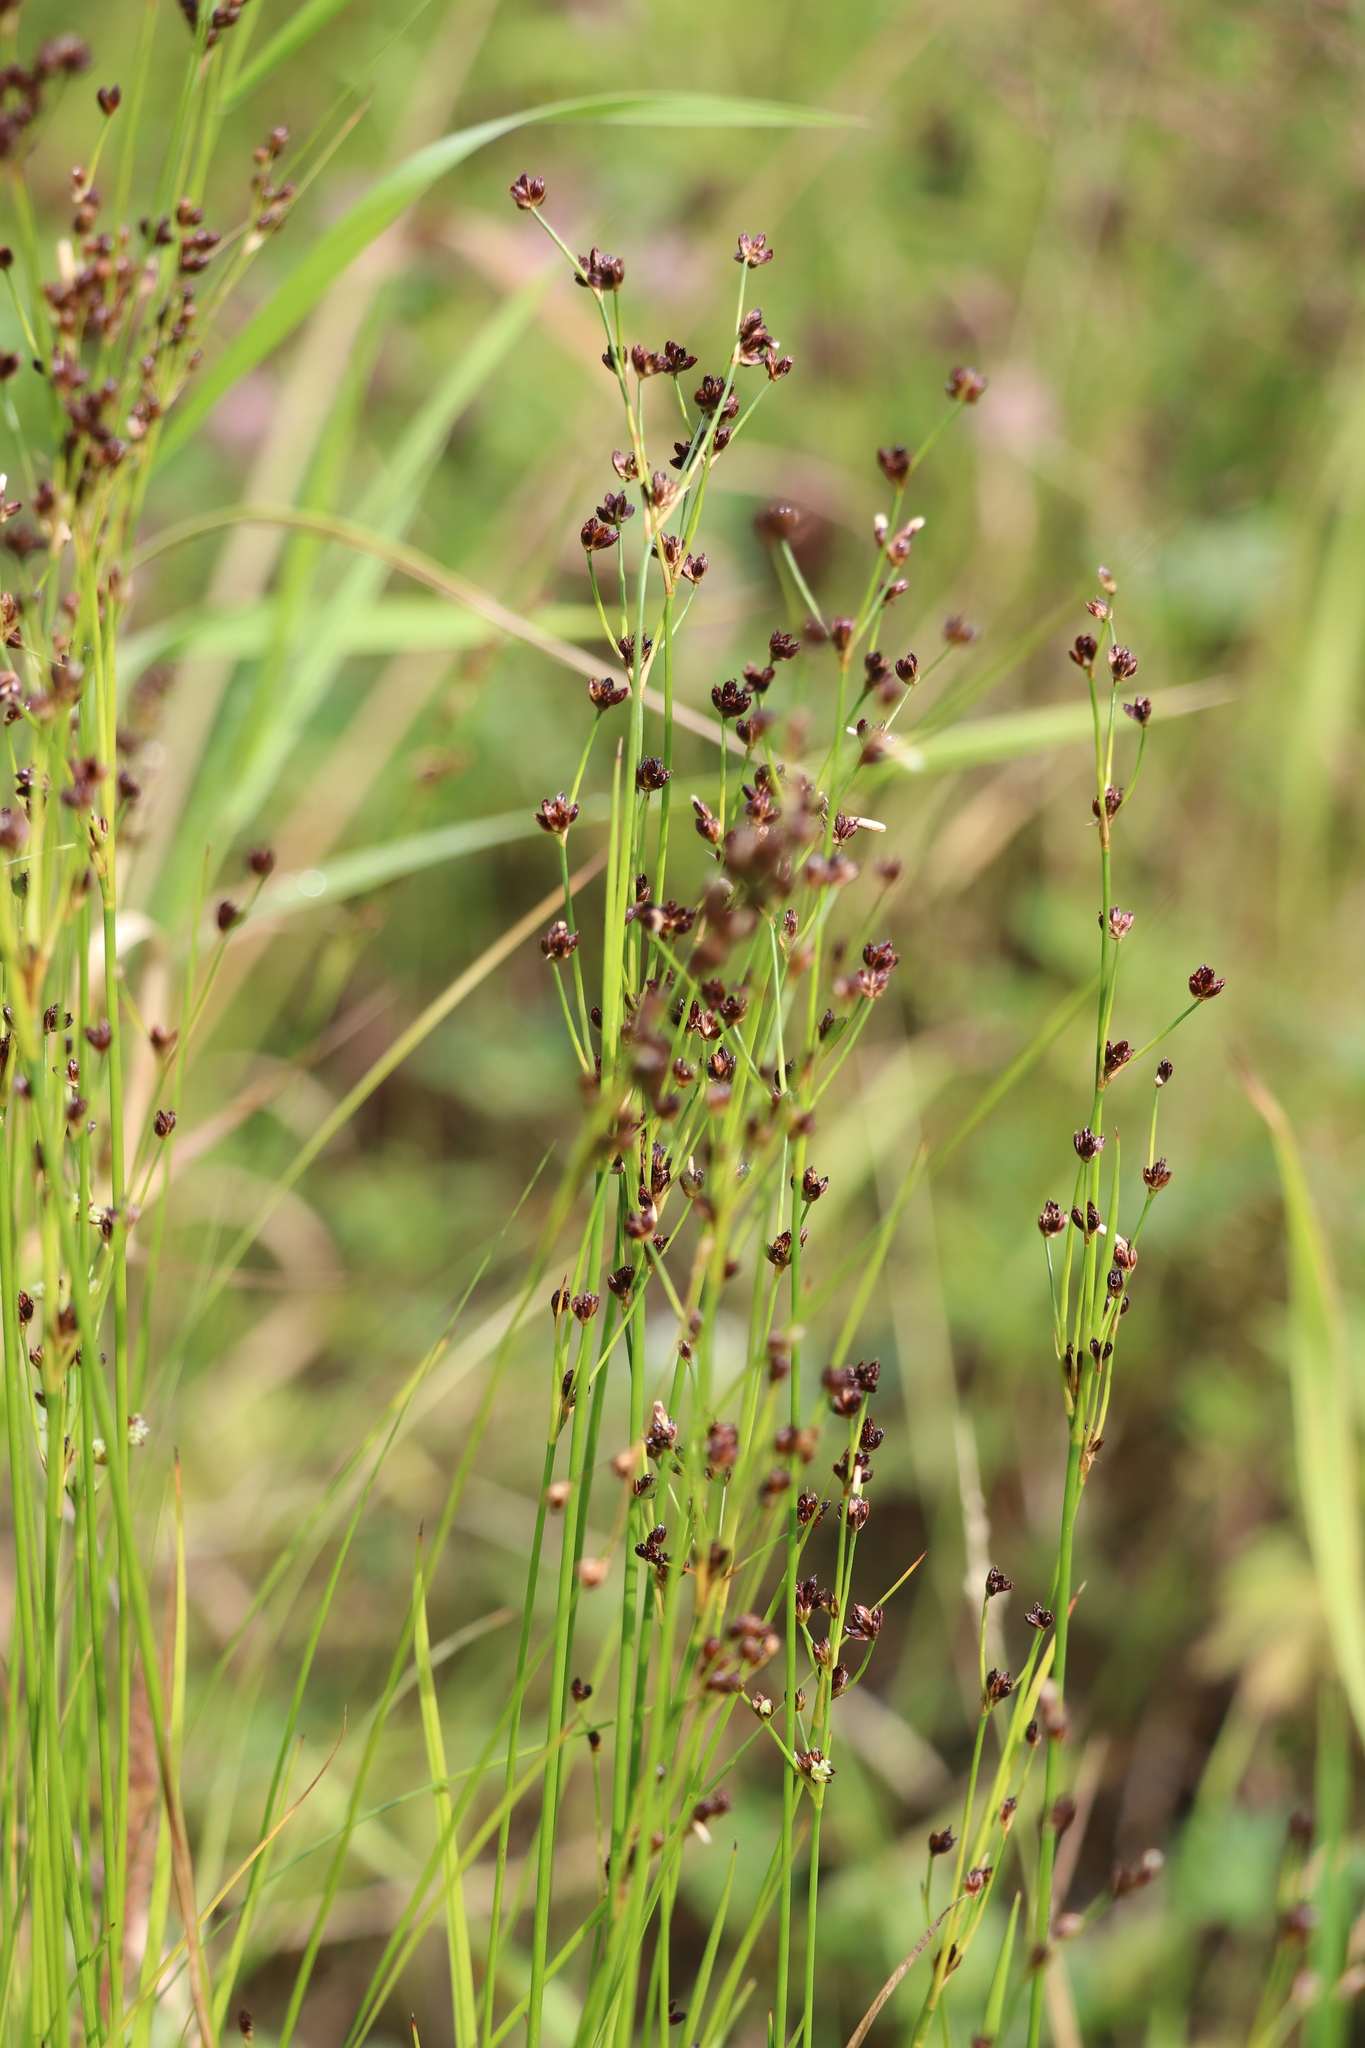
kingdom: Plantae
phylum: Tracheophyta
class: Liliopsida
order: Poales
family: Juncaceae
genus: Juncus
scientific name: Juncus alpinoarticulatus
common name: Alpine rush
